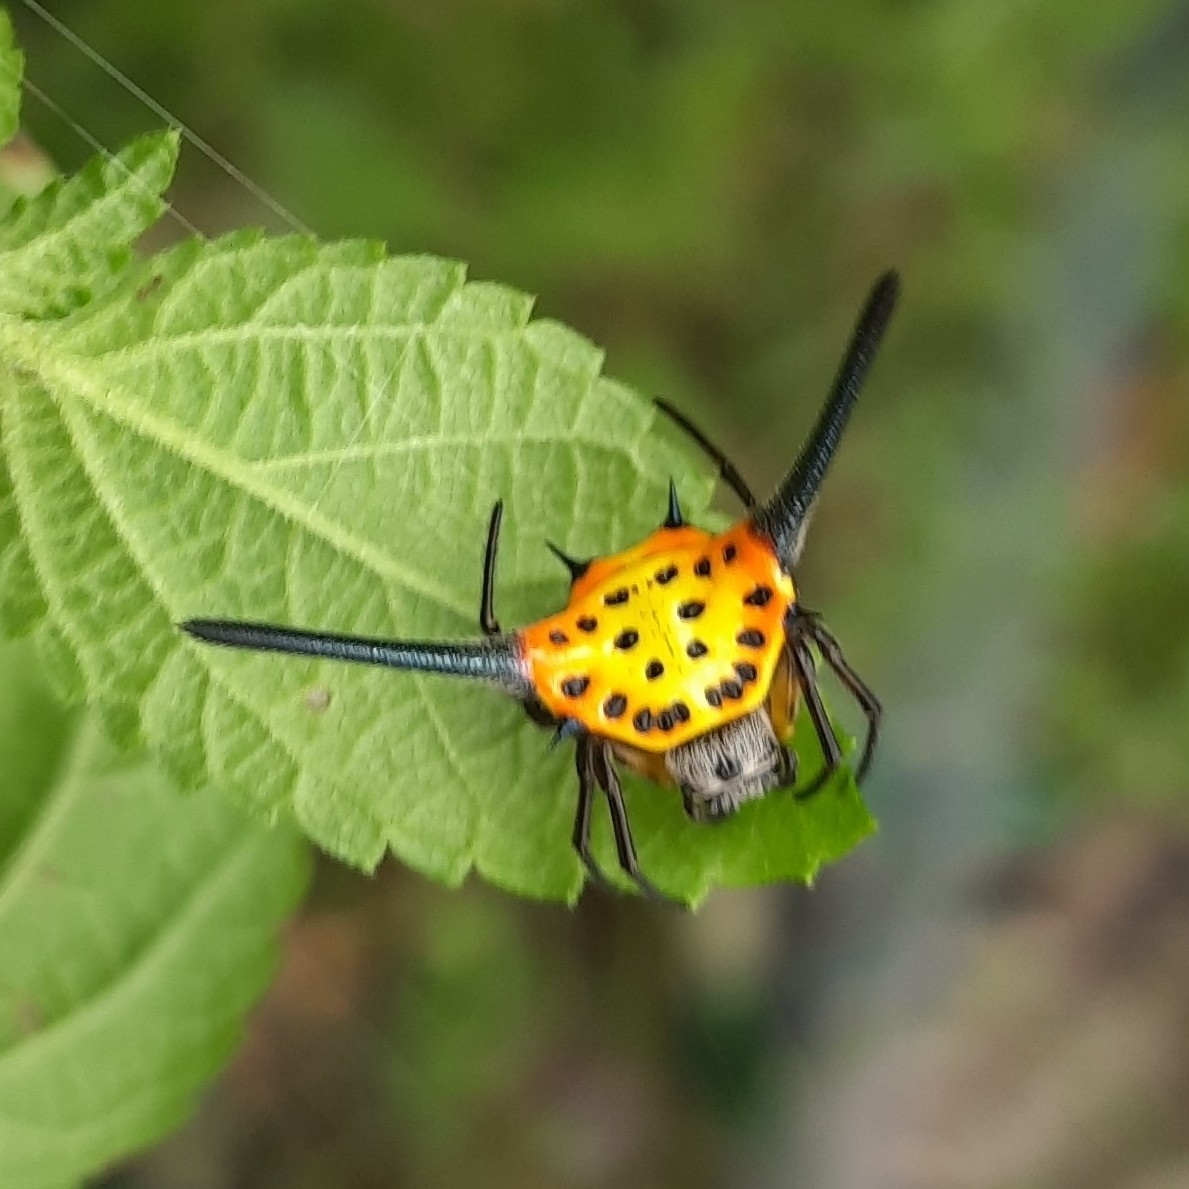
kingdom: Animalia
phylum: Arthropoda
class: Arachnida
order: Araneae
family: Araneidae
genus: Gasteracantha
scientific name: Gasteracantha dalyi
